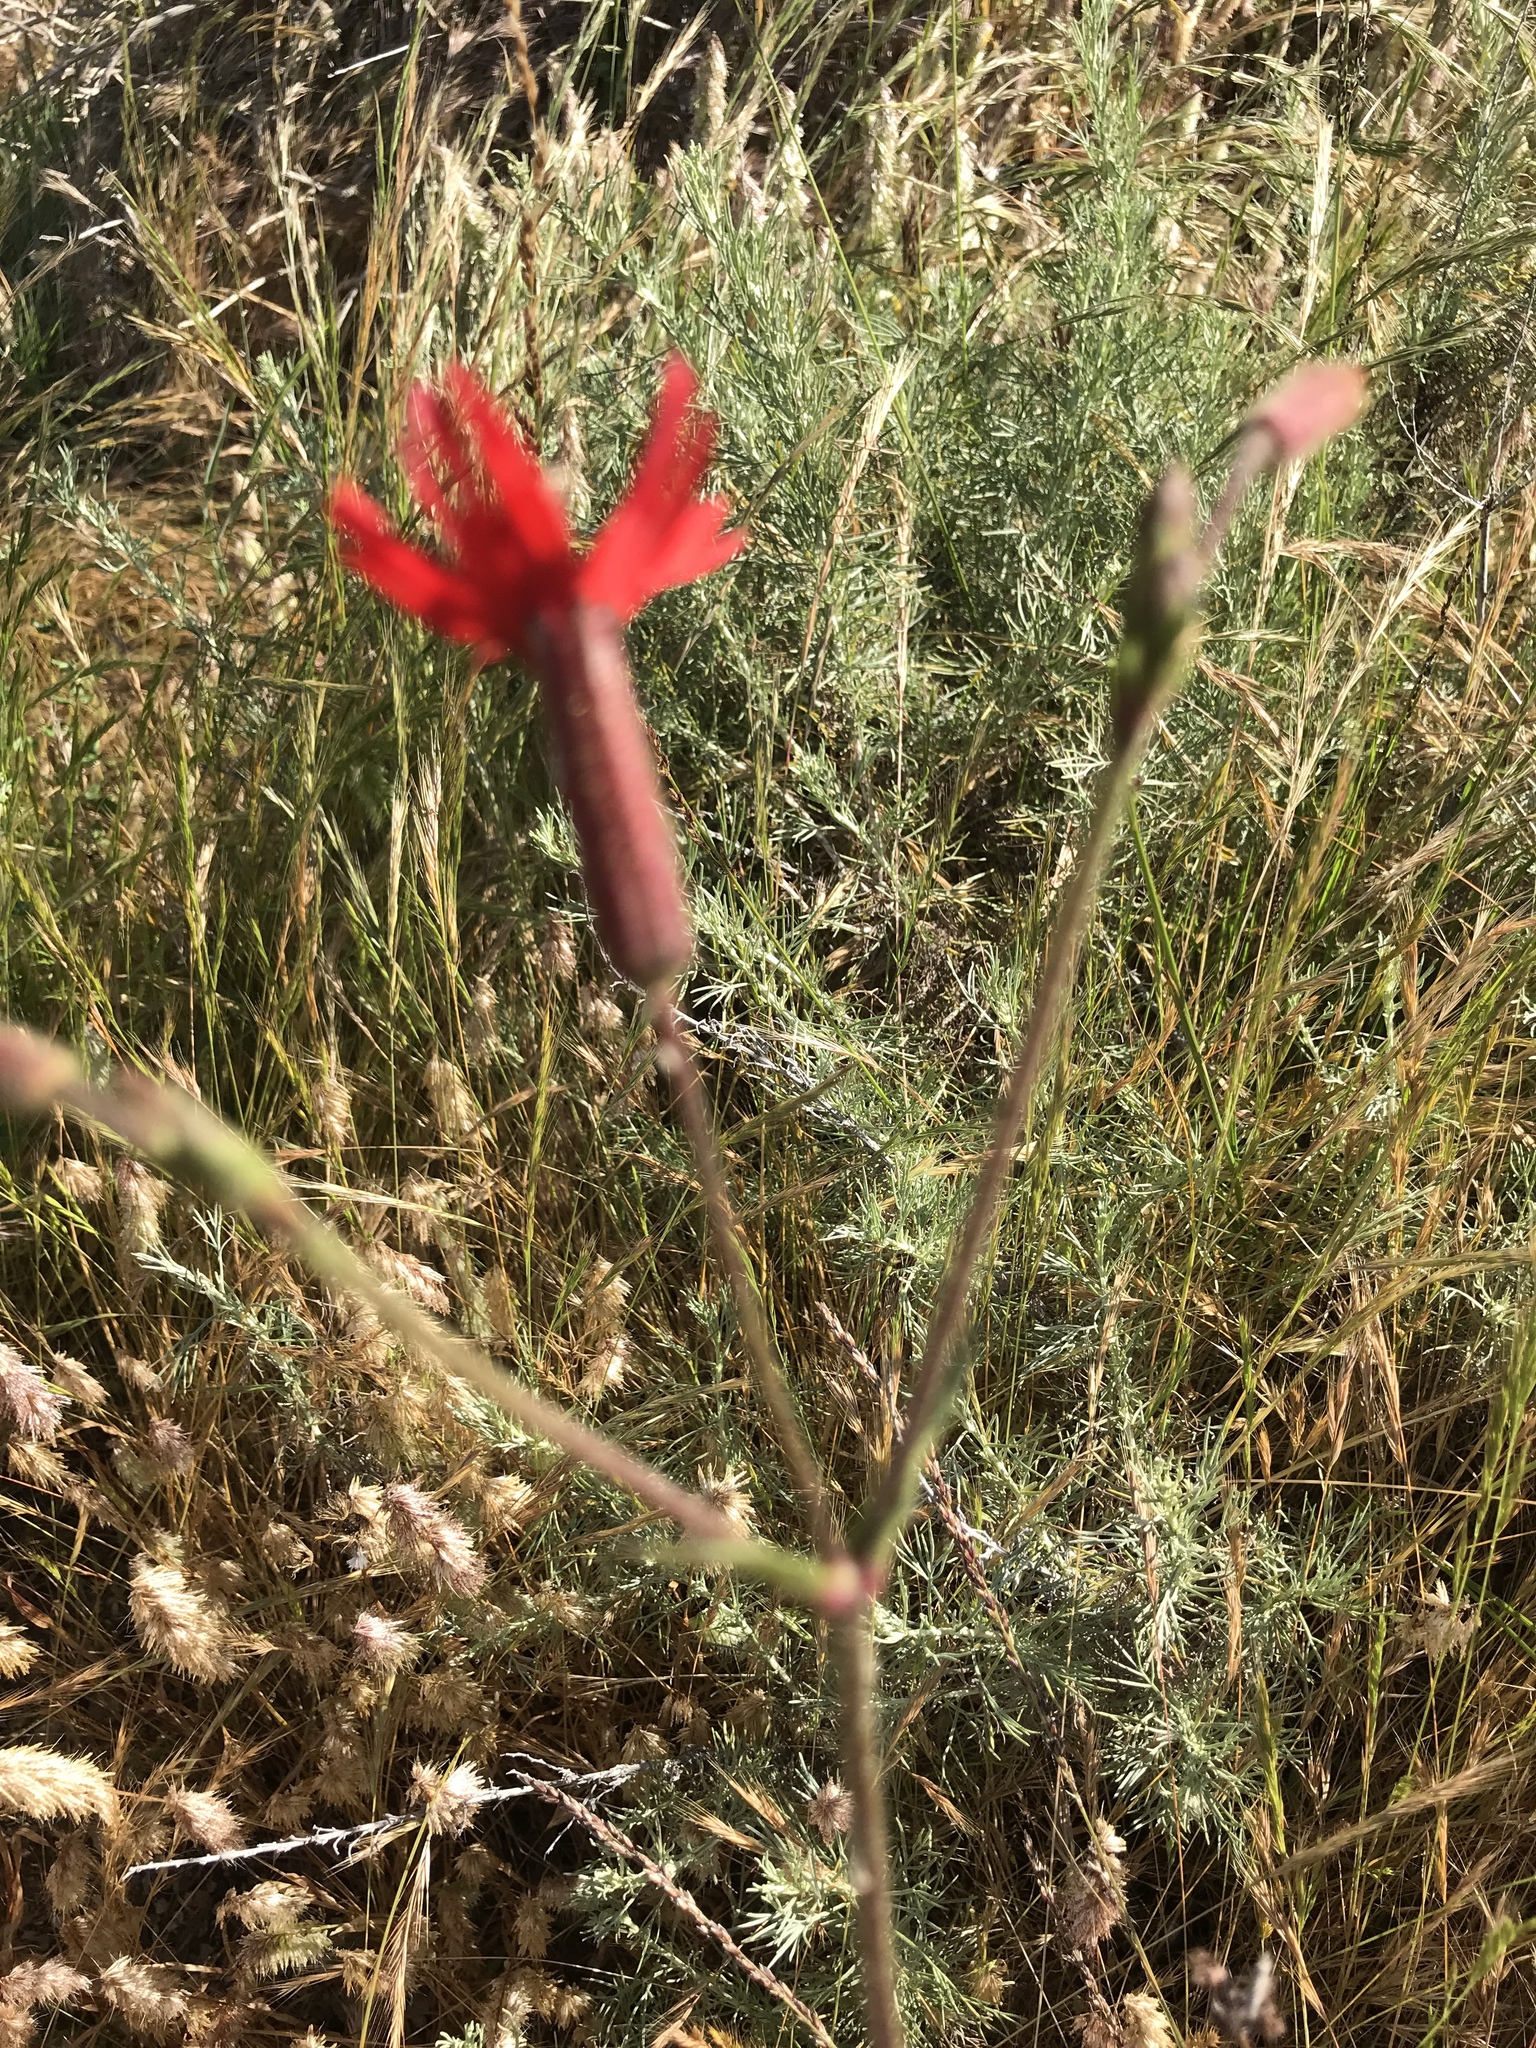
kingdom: Plantae
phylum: Tracheophyta
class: Magnoliopsida
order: Caryophyllales
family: Caryophyllaceae
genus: Silene
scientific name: Silene laciniata
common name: Indian-pink
